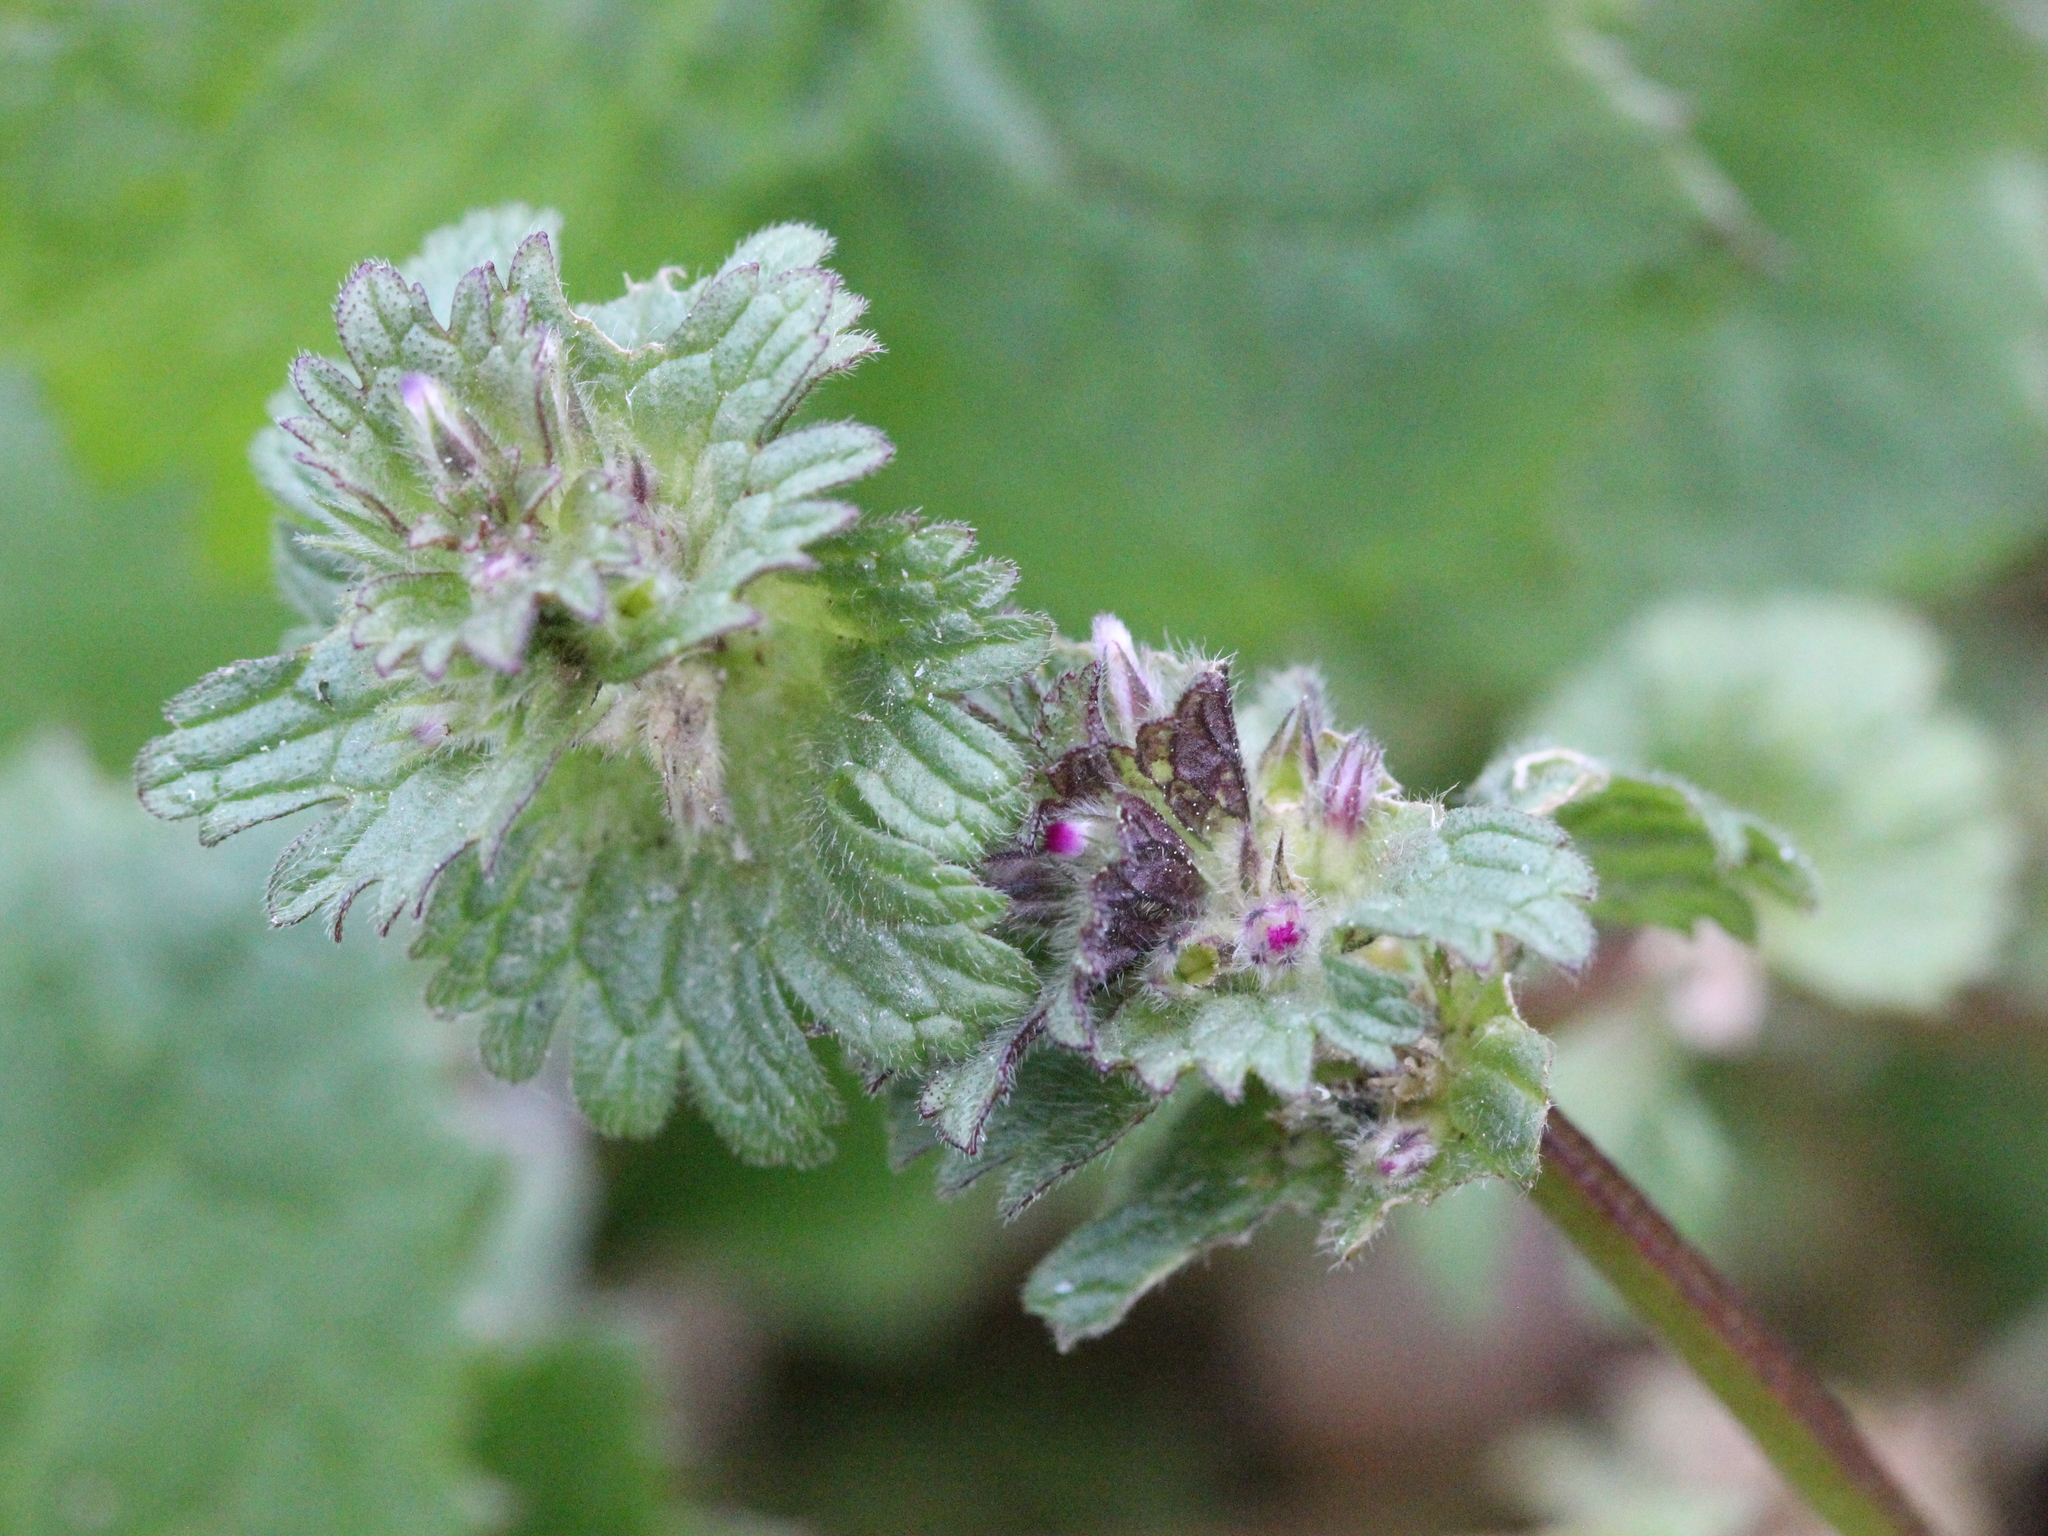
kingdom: Plantae
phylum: Tracheophyta
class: Magnoliopsida
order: Lamiales
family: Lamiaceae
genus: Lamium
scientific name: Lamium amplexicaule
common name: Henbit dead-nettle
